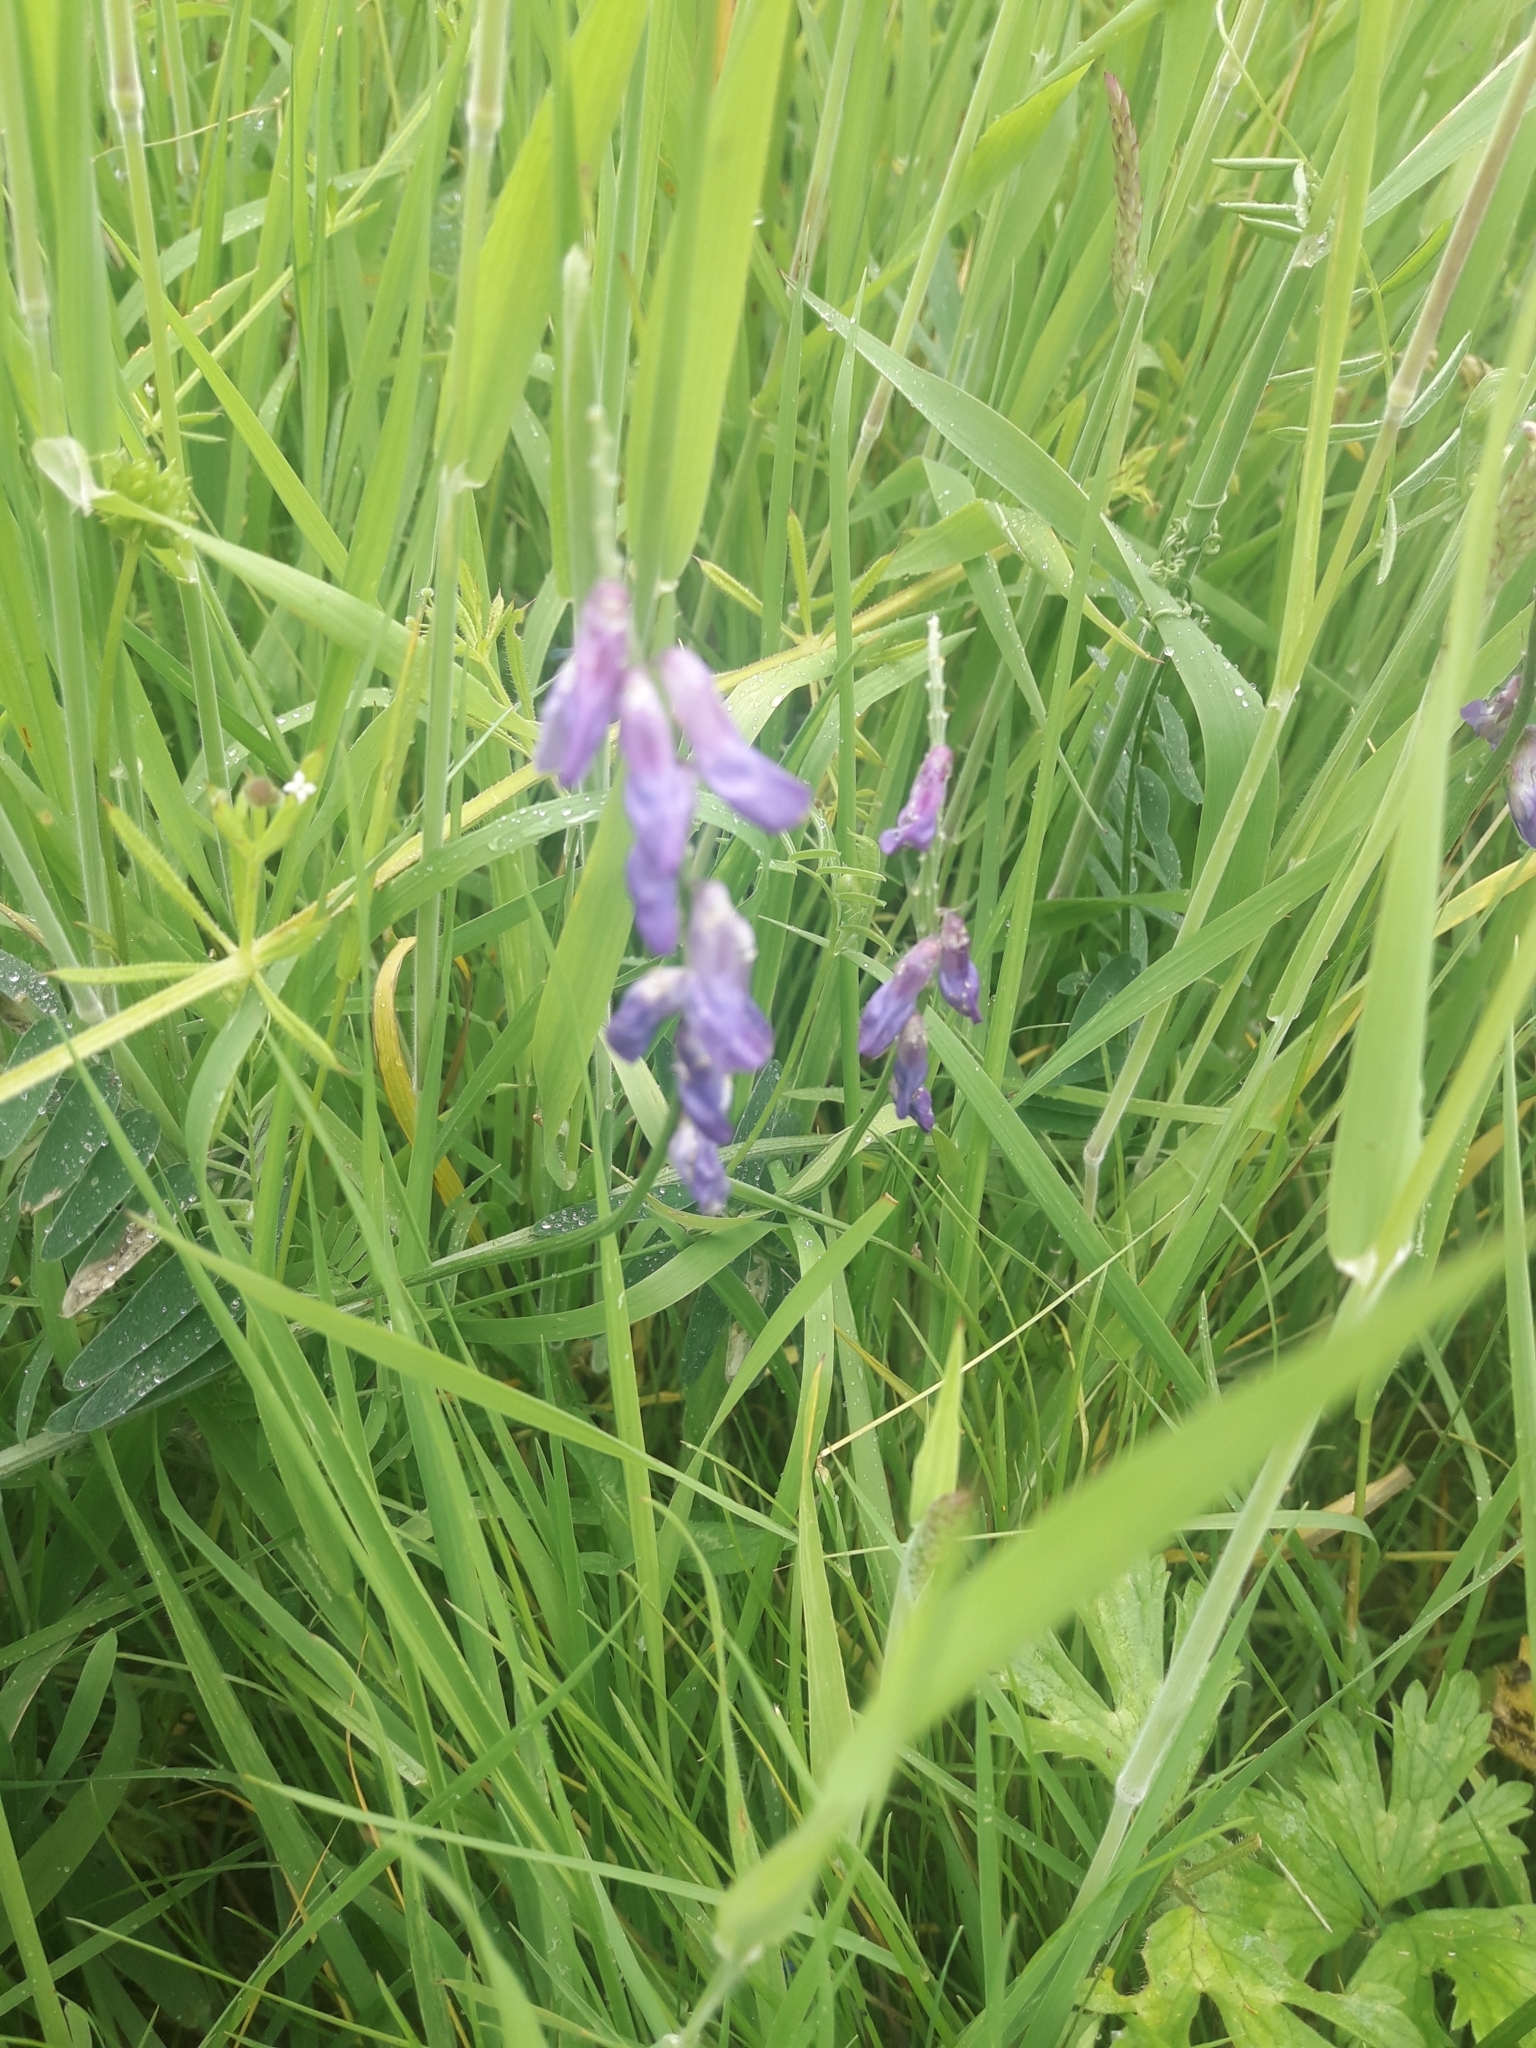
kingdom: Plantae
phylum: Tracheophyta
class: Magnoliopsida
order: Fabales
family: Fabaceae
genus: Vicia
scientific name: Vicia cracca
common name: Bird vetch
